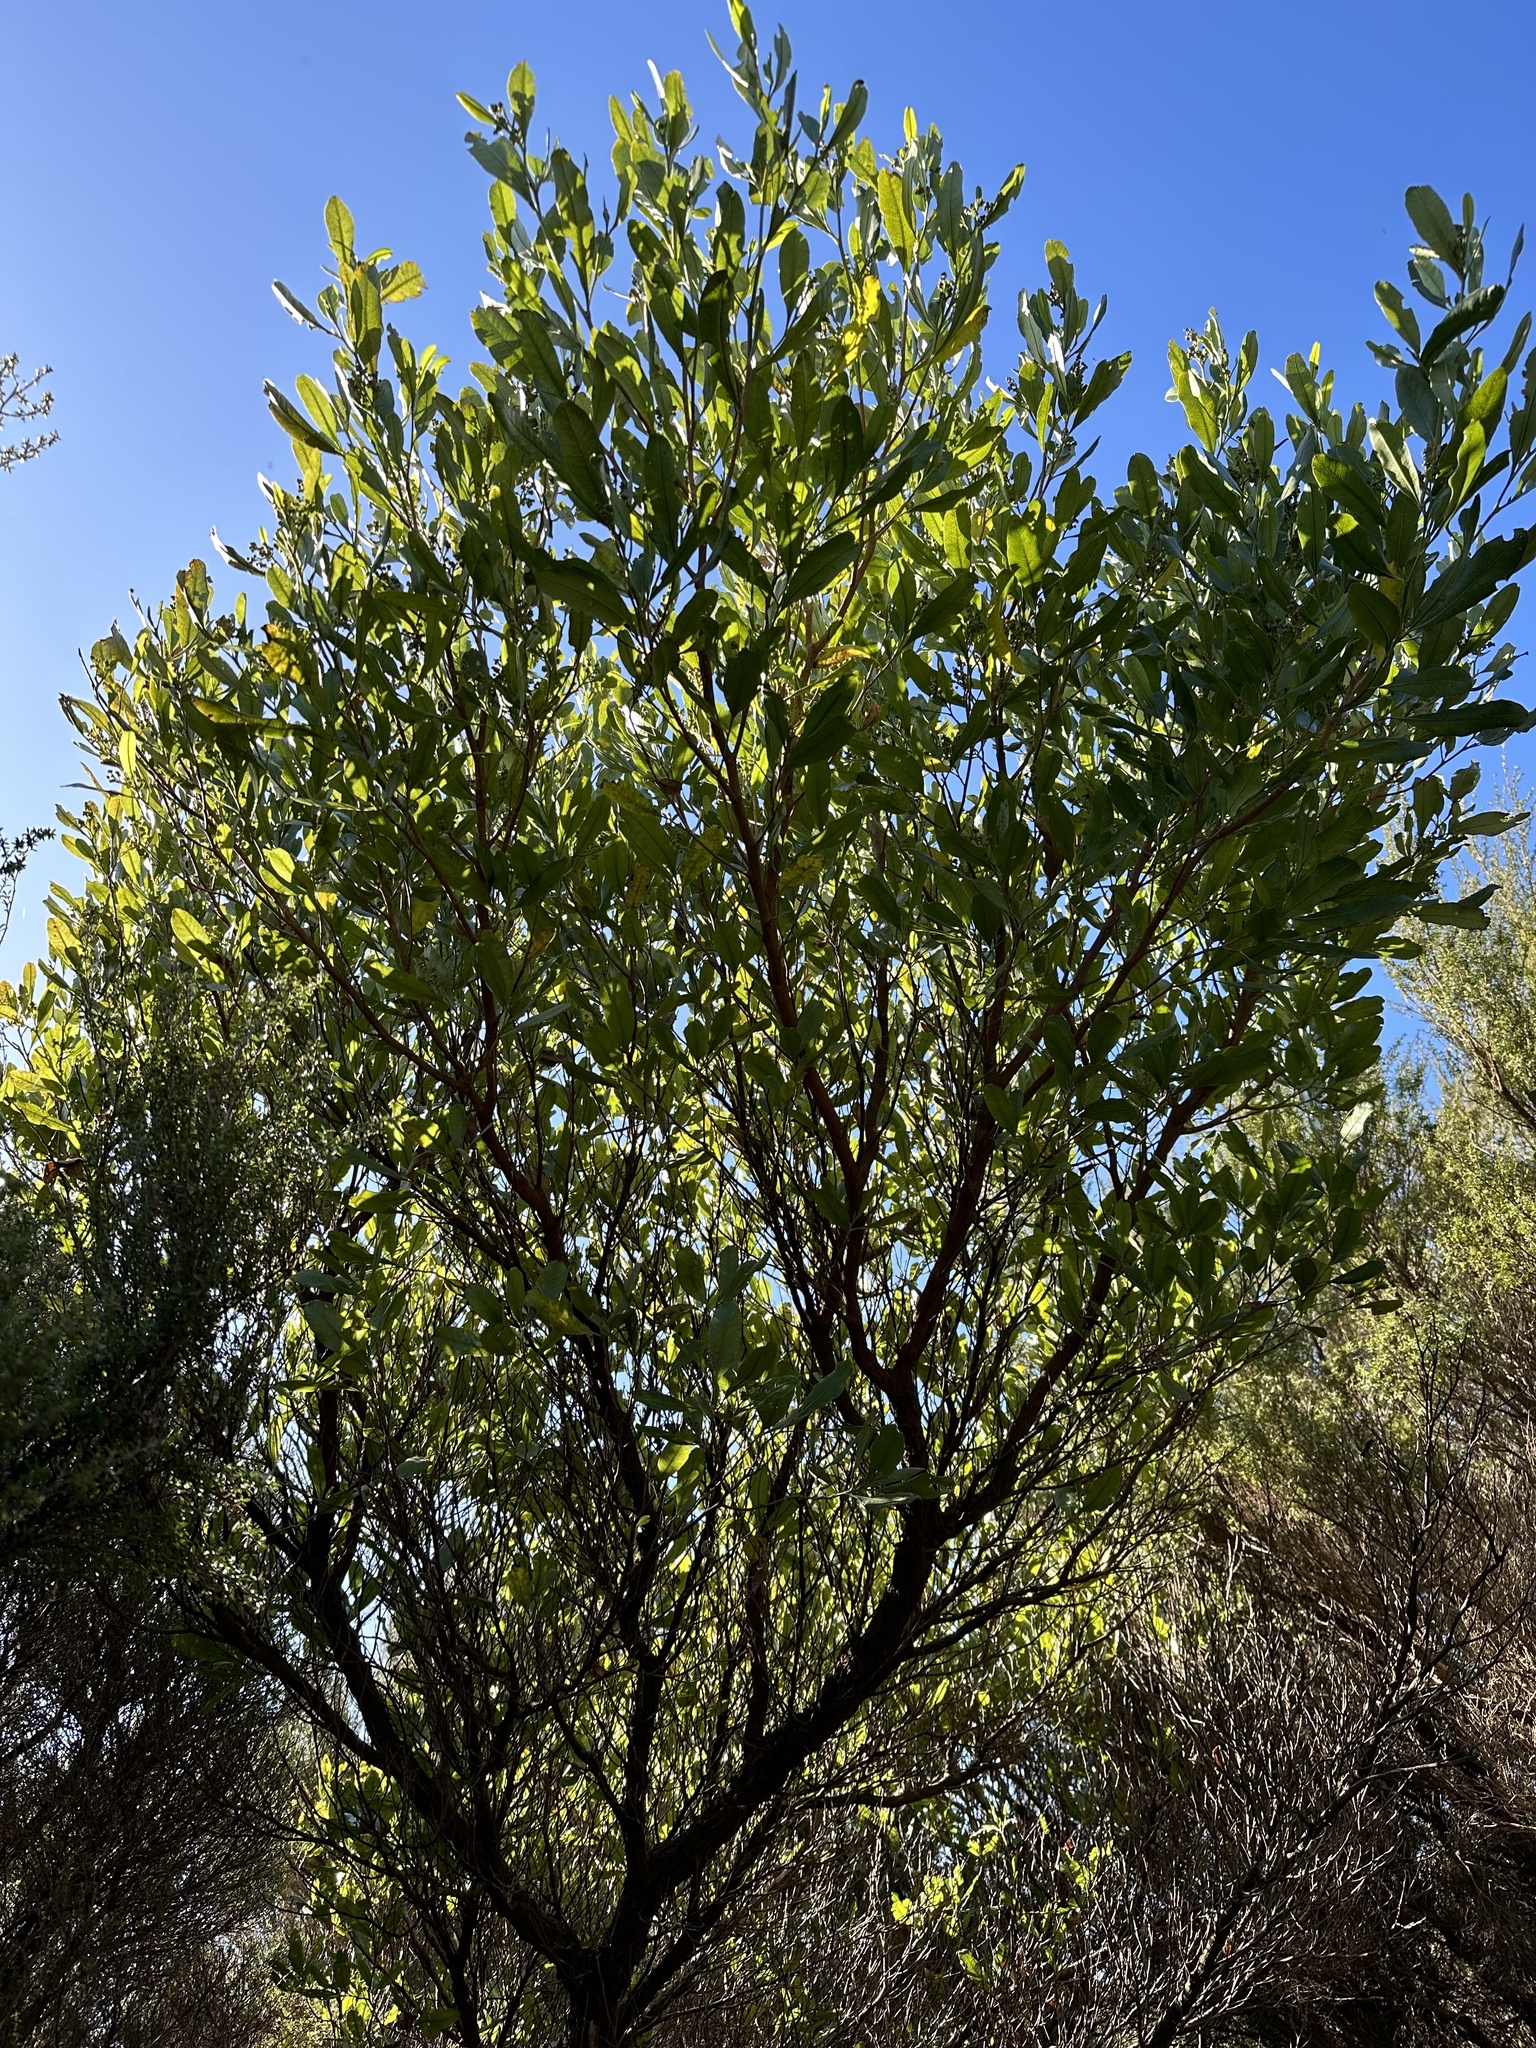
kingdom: Plantae
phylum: Tracheophyta
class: Magnoliopsida
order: Sapindales
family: Sapindaceae
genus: Dodonaea
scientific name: Dodonaea viscosa
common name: Hopbush
